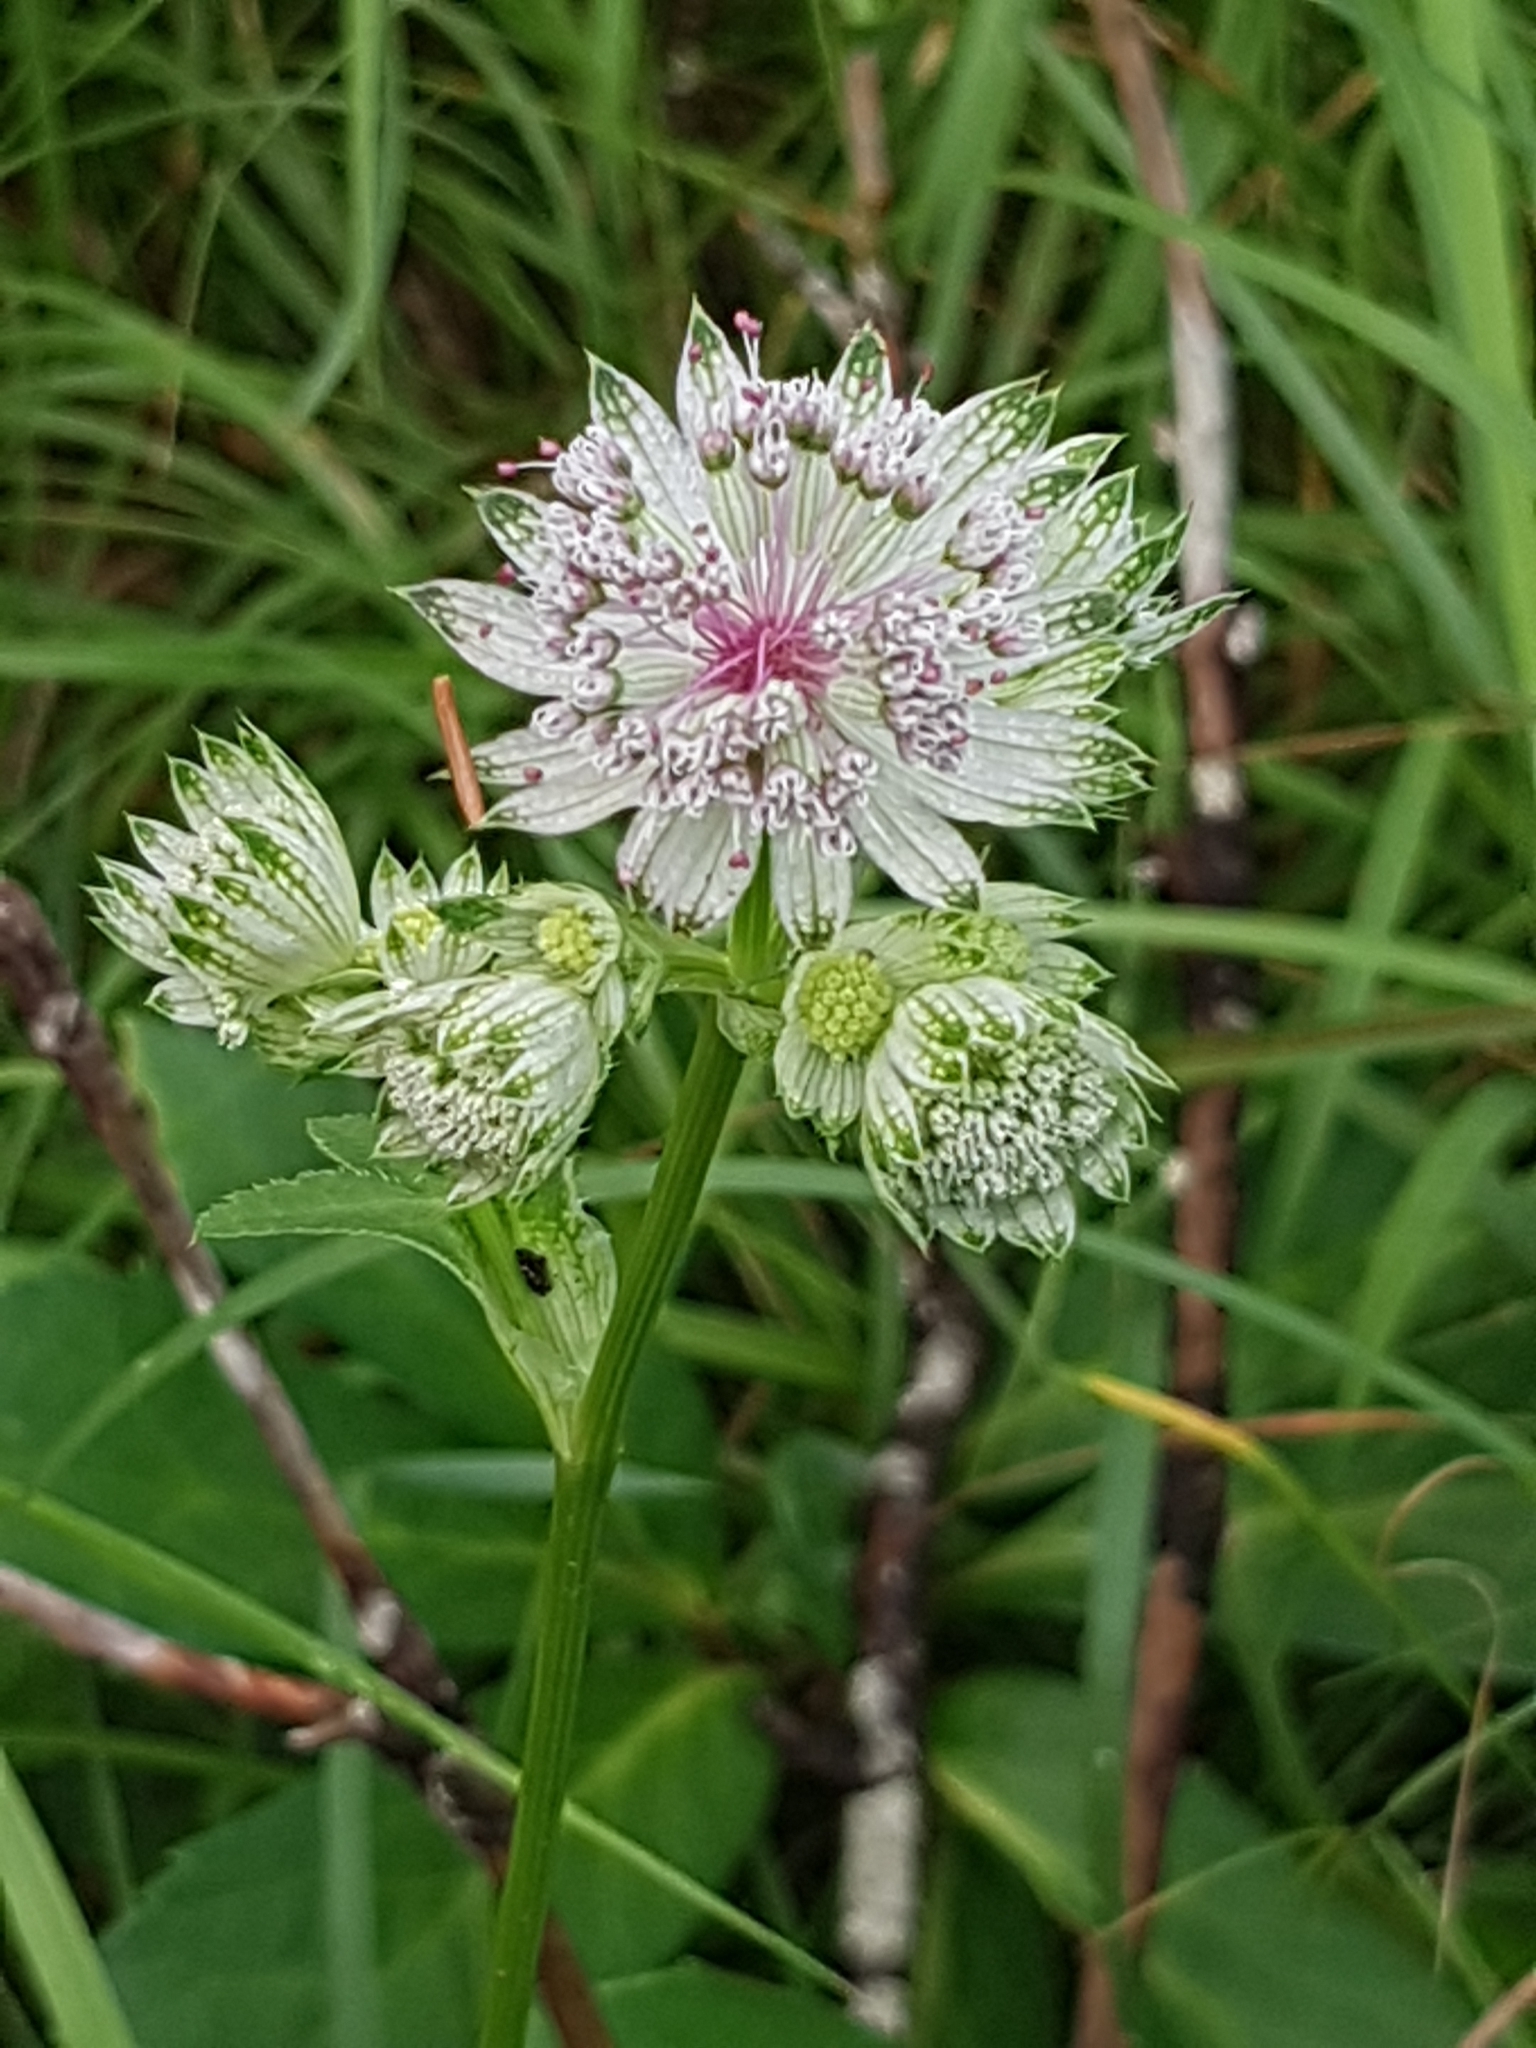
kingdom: Plantae
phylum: Tracheophyta
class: Magnoliopsida
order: Apiales
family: Apiaceae
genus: Astrantia
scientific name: Astrantia major
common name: Greater masterwort
